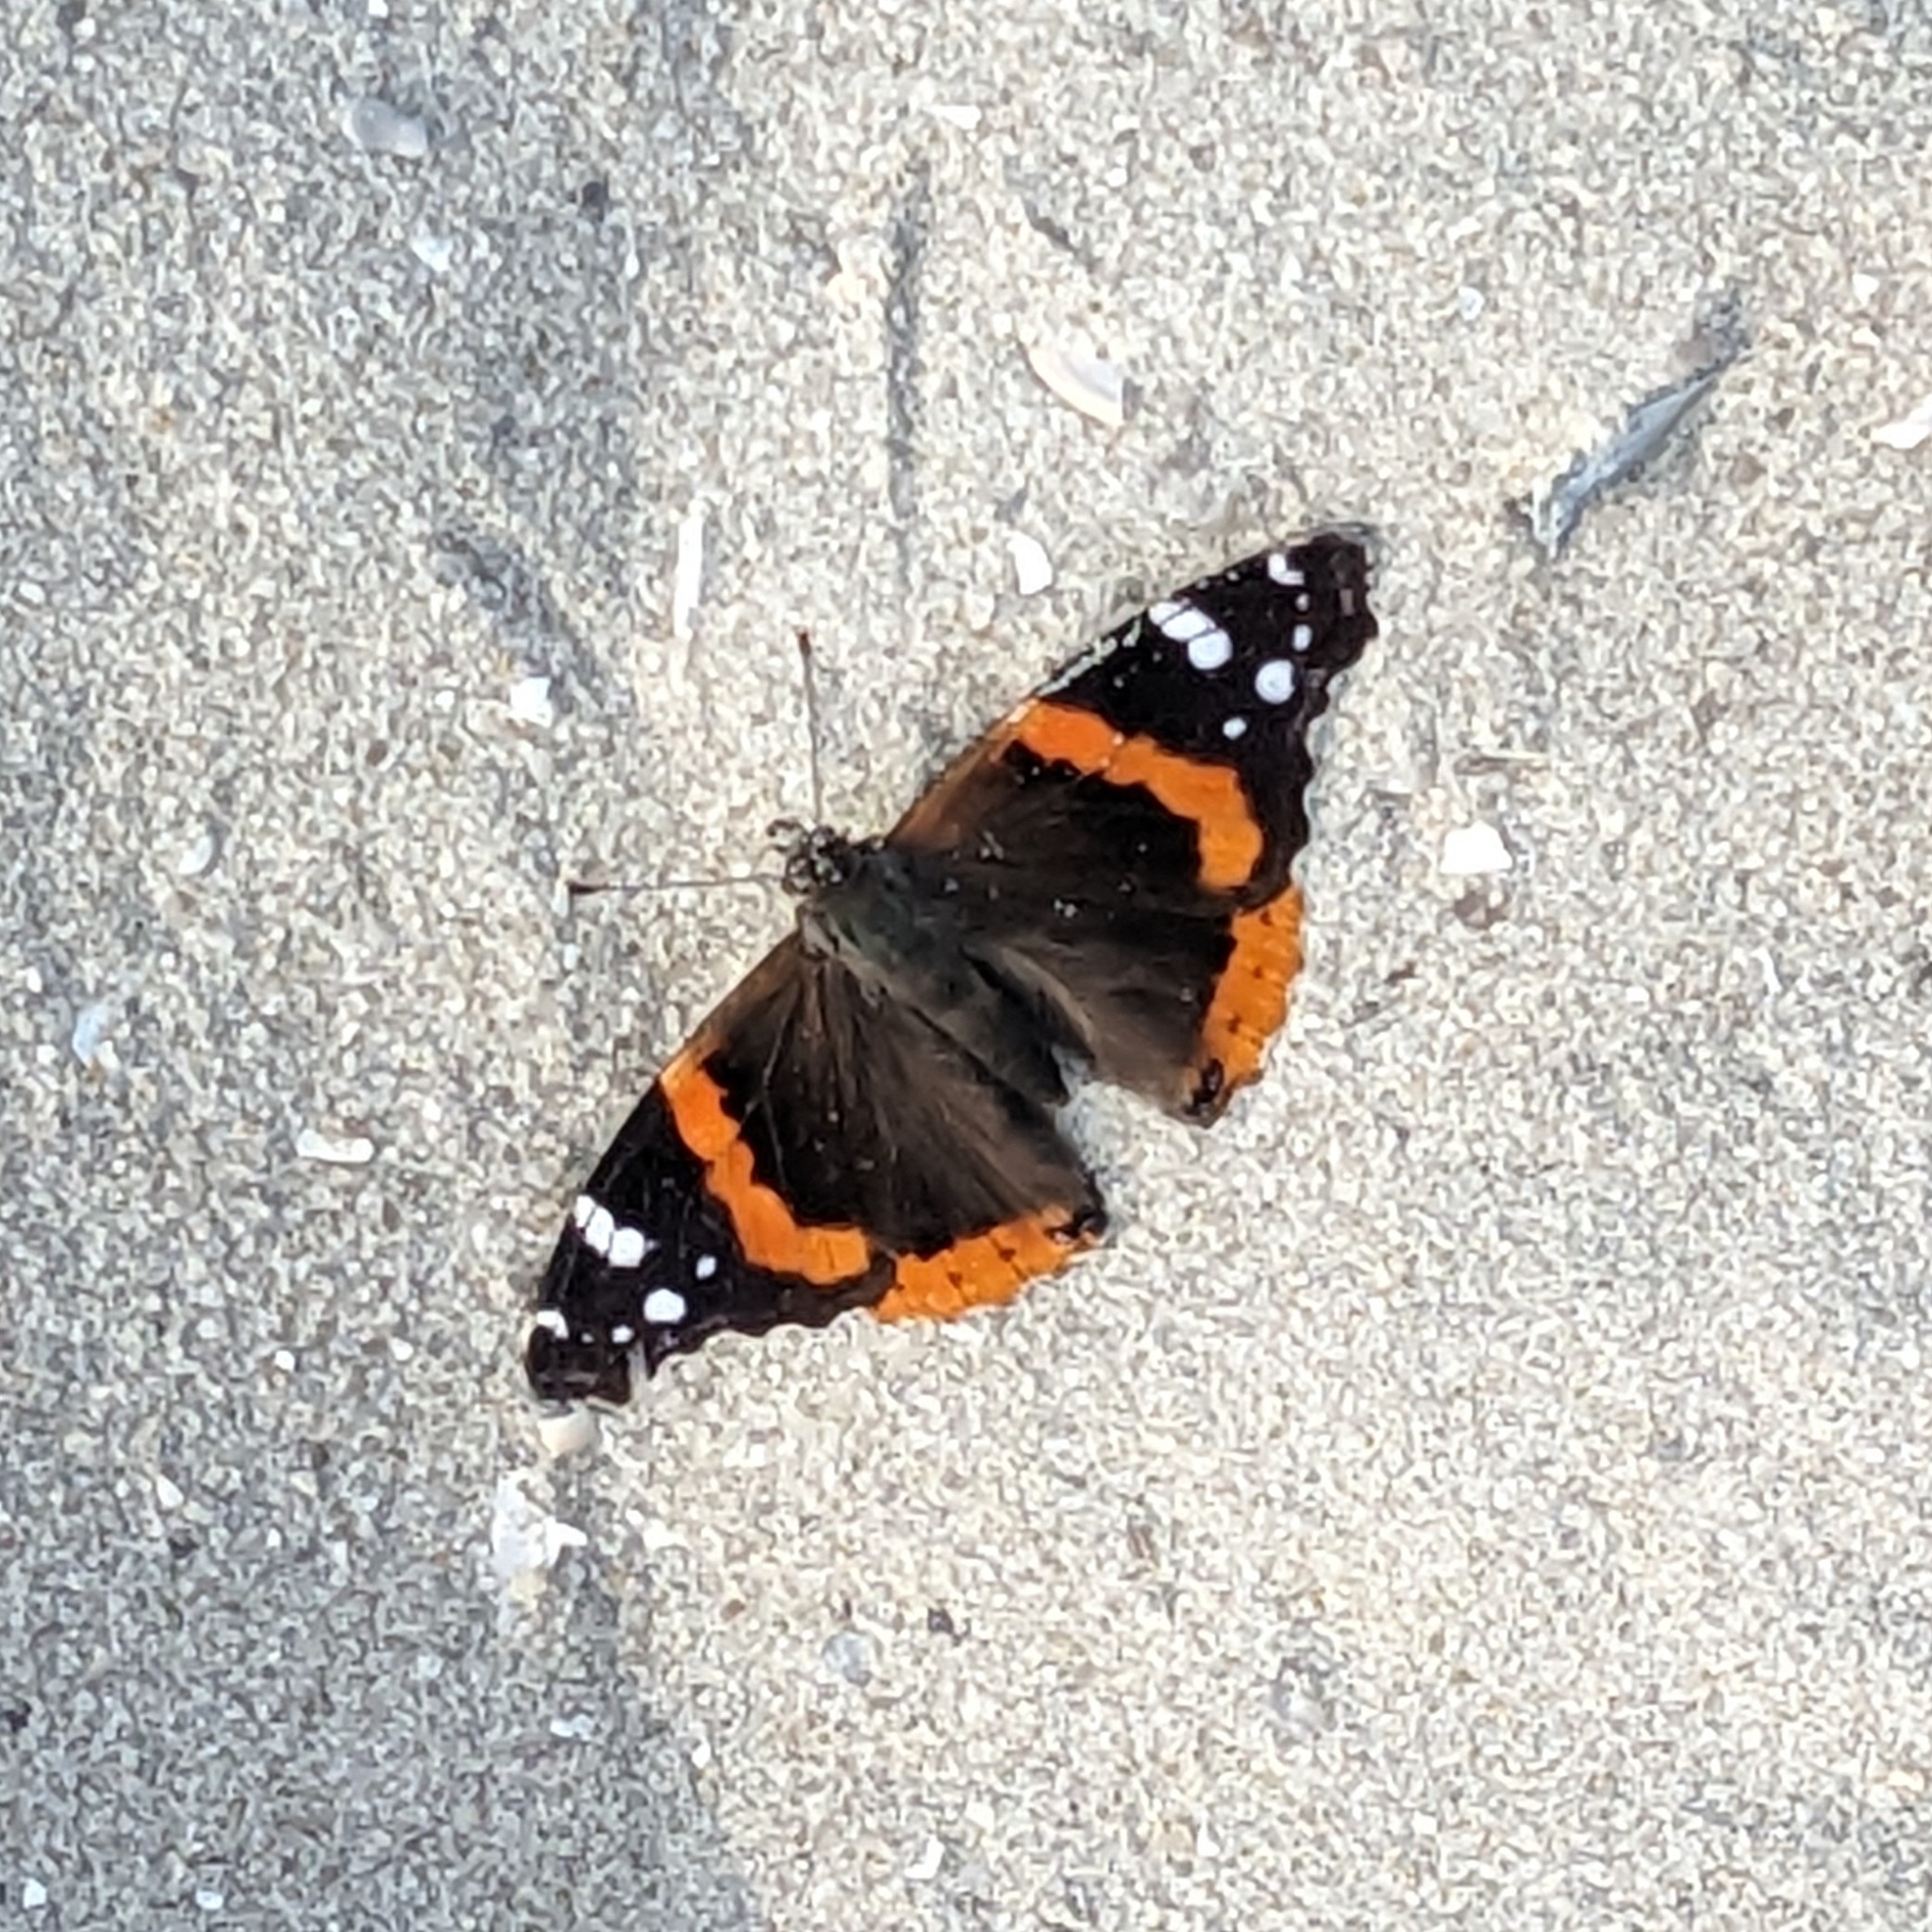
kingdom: Animalia
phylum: Arthropoda
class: Insecta
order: Lepidoptera
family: Nymphalidae
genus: Vanessa
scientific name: Vanessa atalanta
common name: Red admiral
